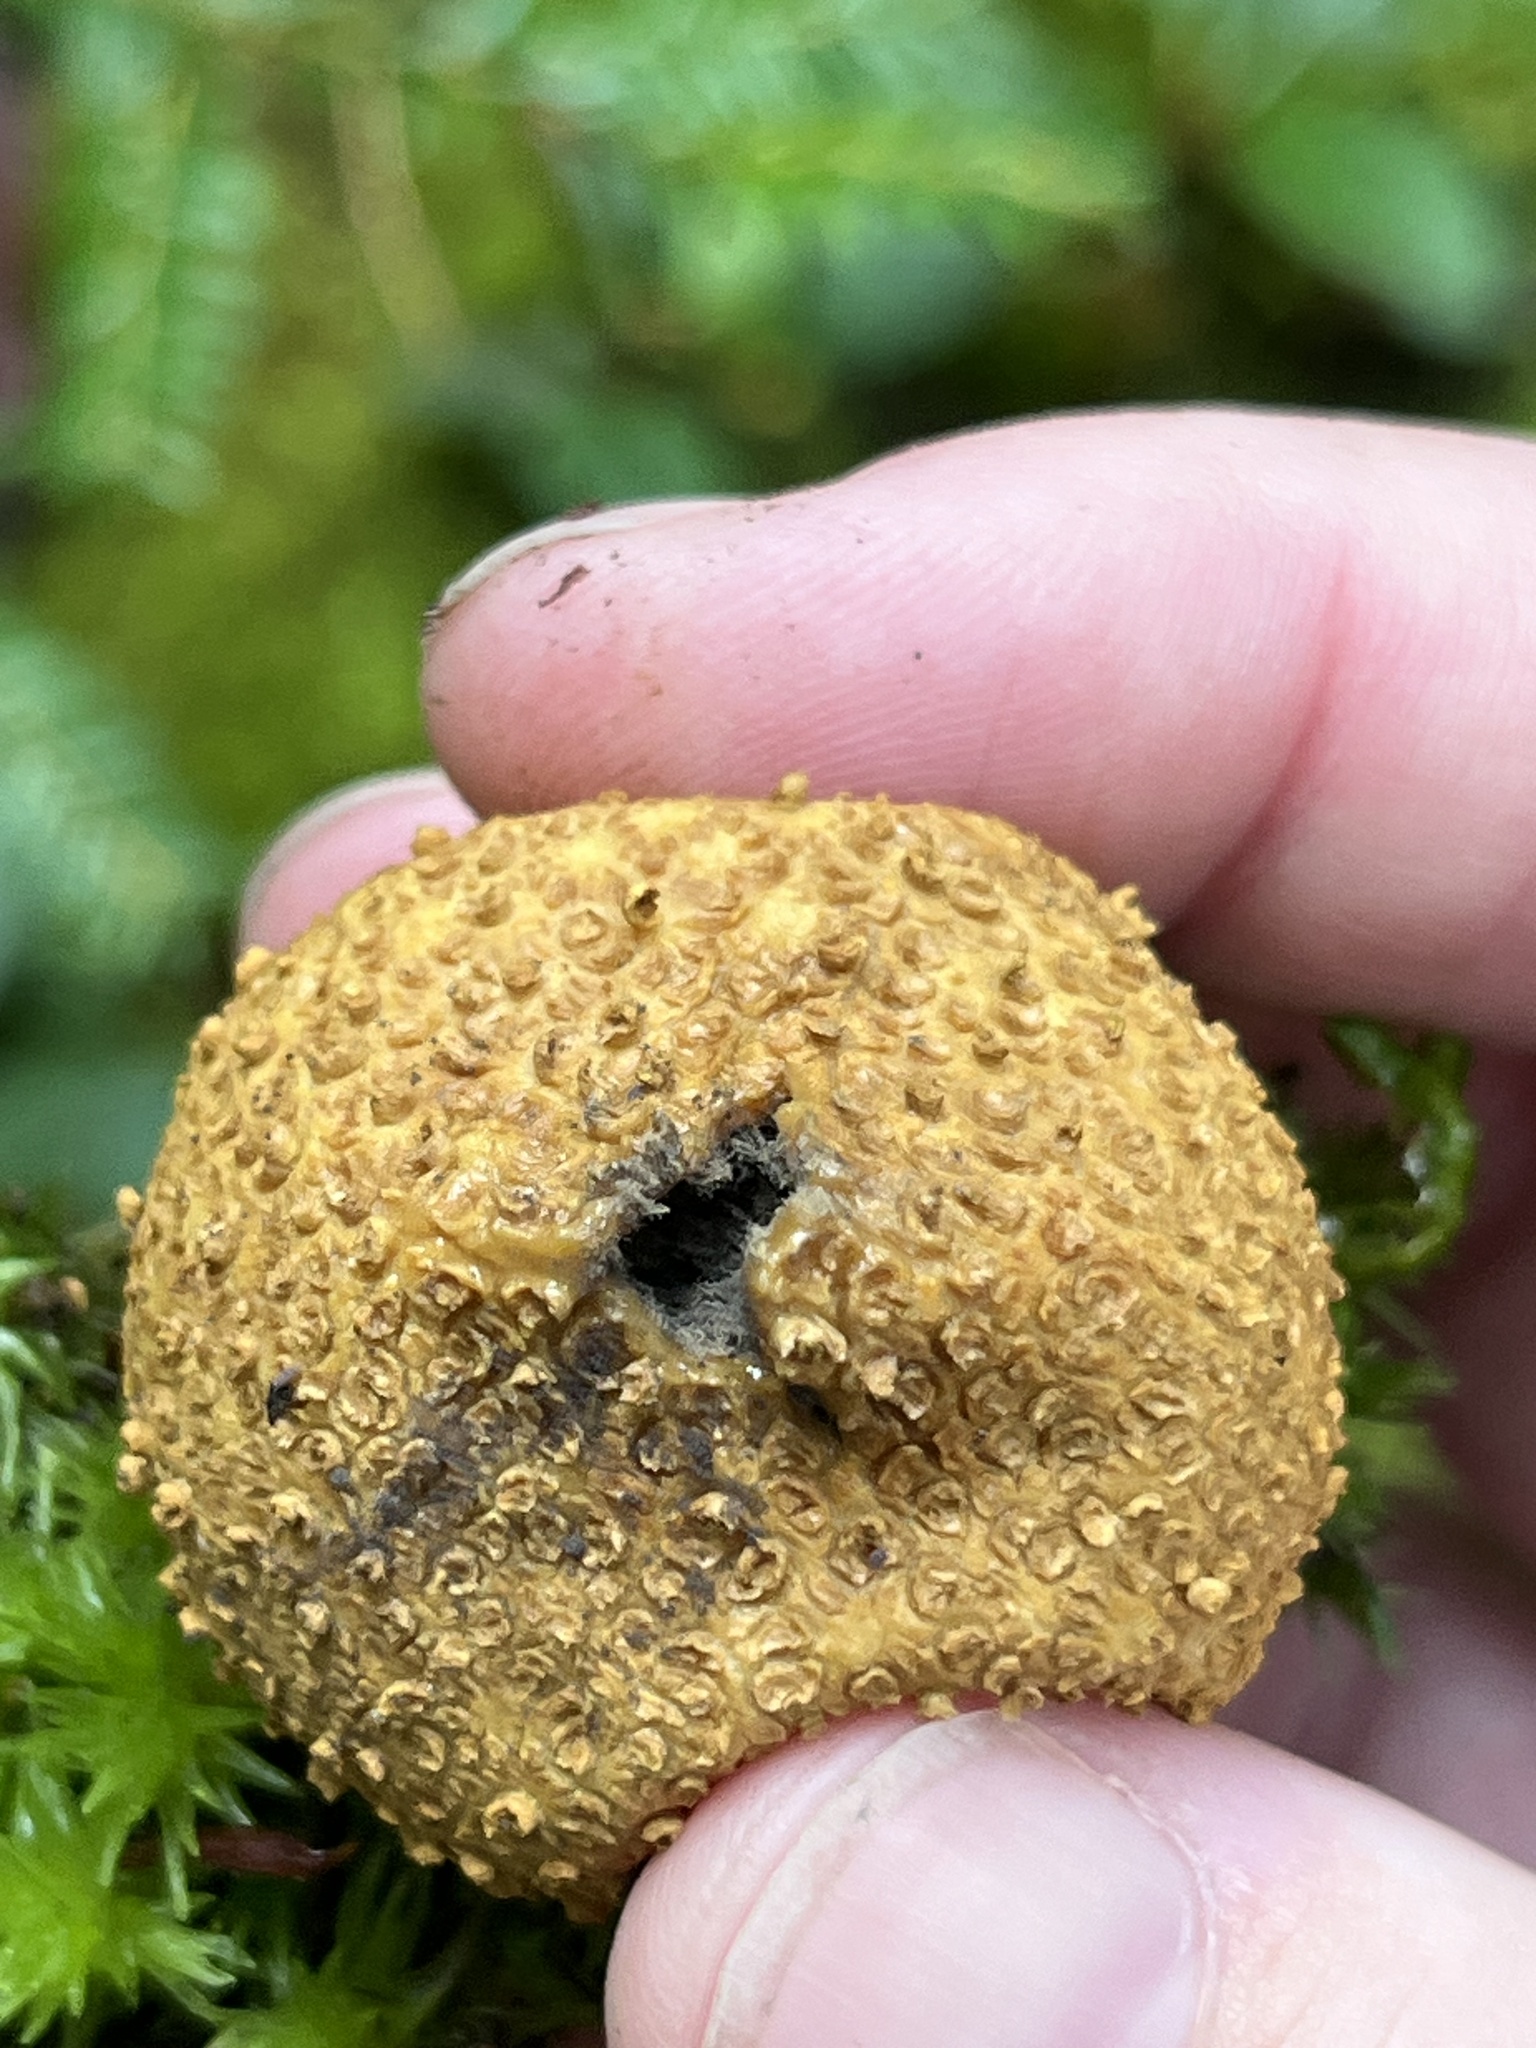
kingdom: Fungi
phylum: Basidiomycota
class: Agaricomycetes
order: Boletales
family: Sclerodermataceae
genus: Scleroderma
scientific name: Scleroderma citrinum
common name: Common earthball
